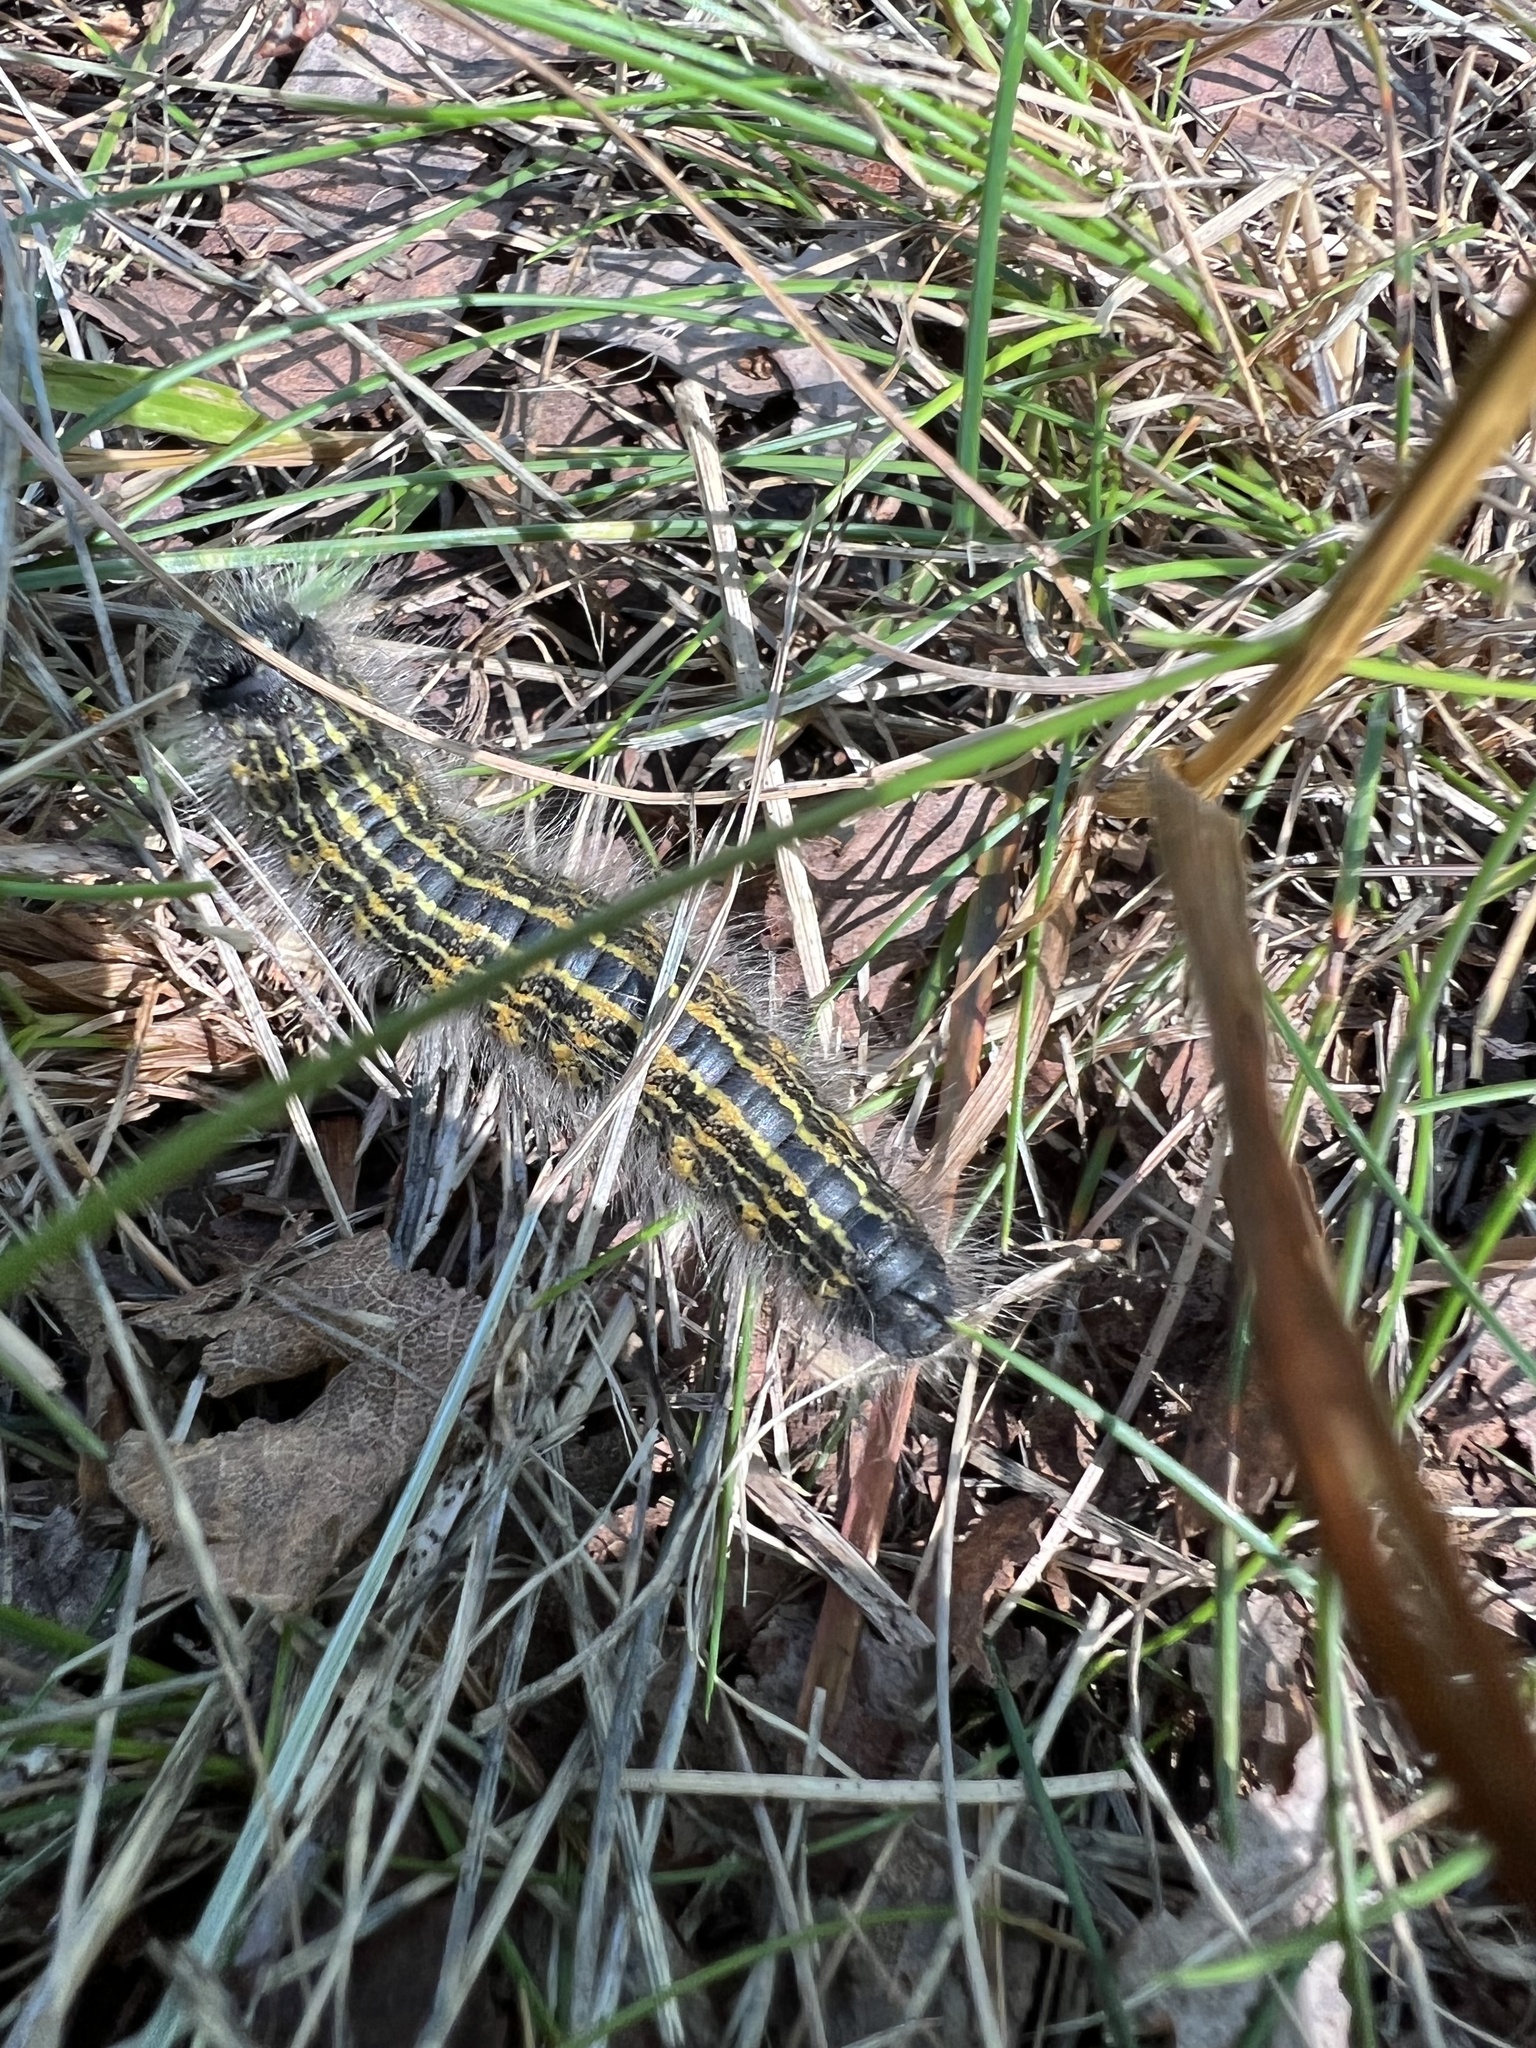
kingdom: Animalia
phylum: Arthropoda
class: Insecta
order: Lepidoptera
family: Notodontidae
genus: Phalera
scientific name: Phalera bucephala
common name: Buff-tip
